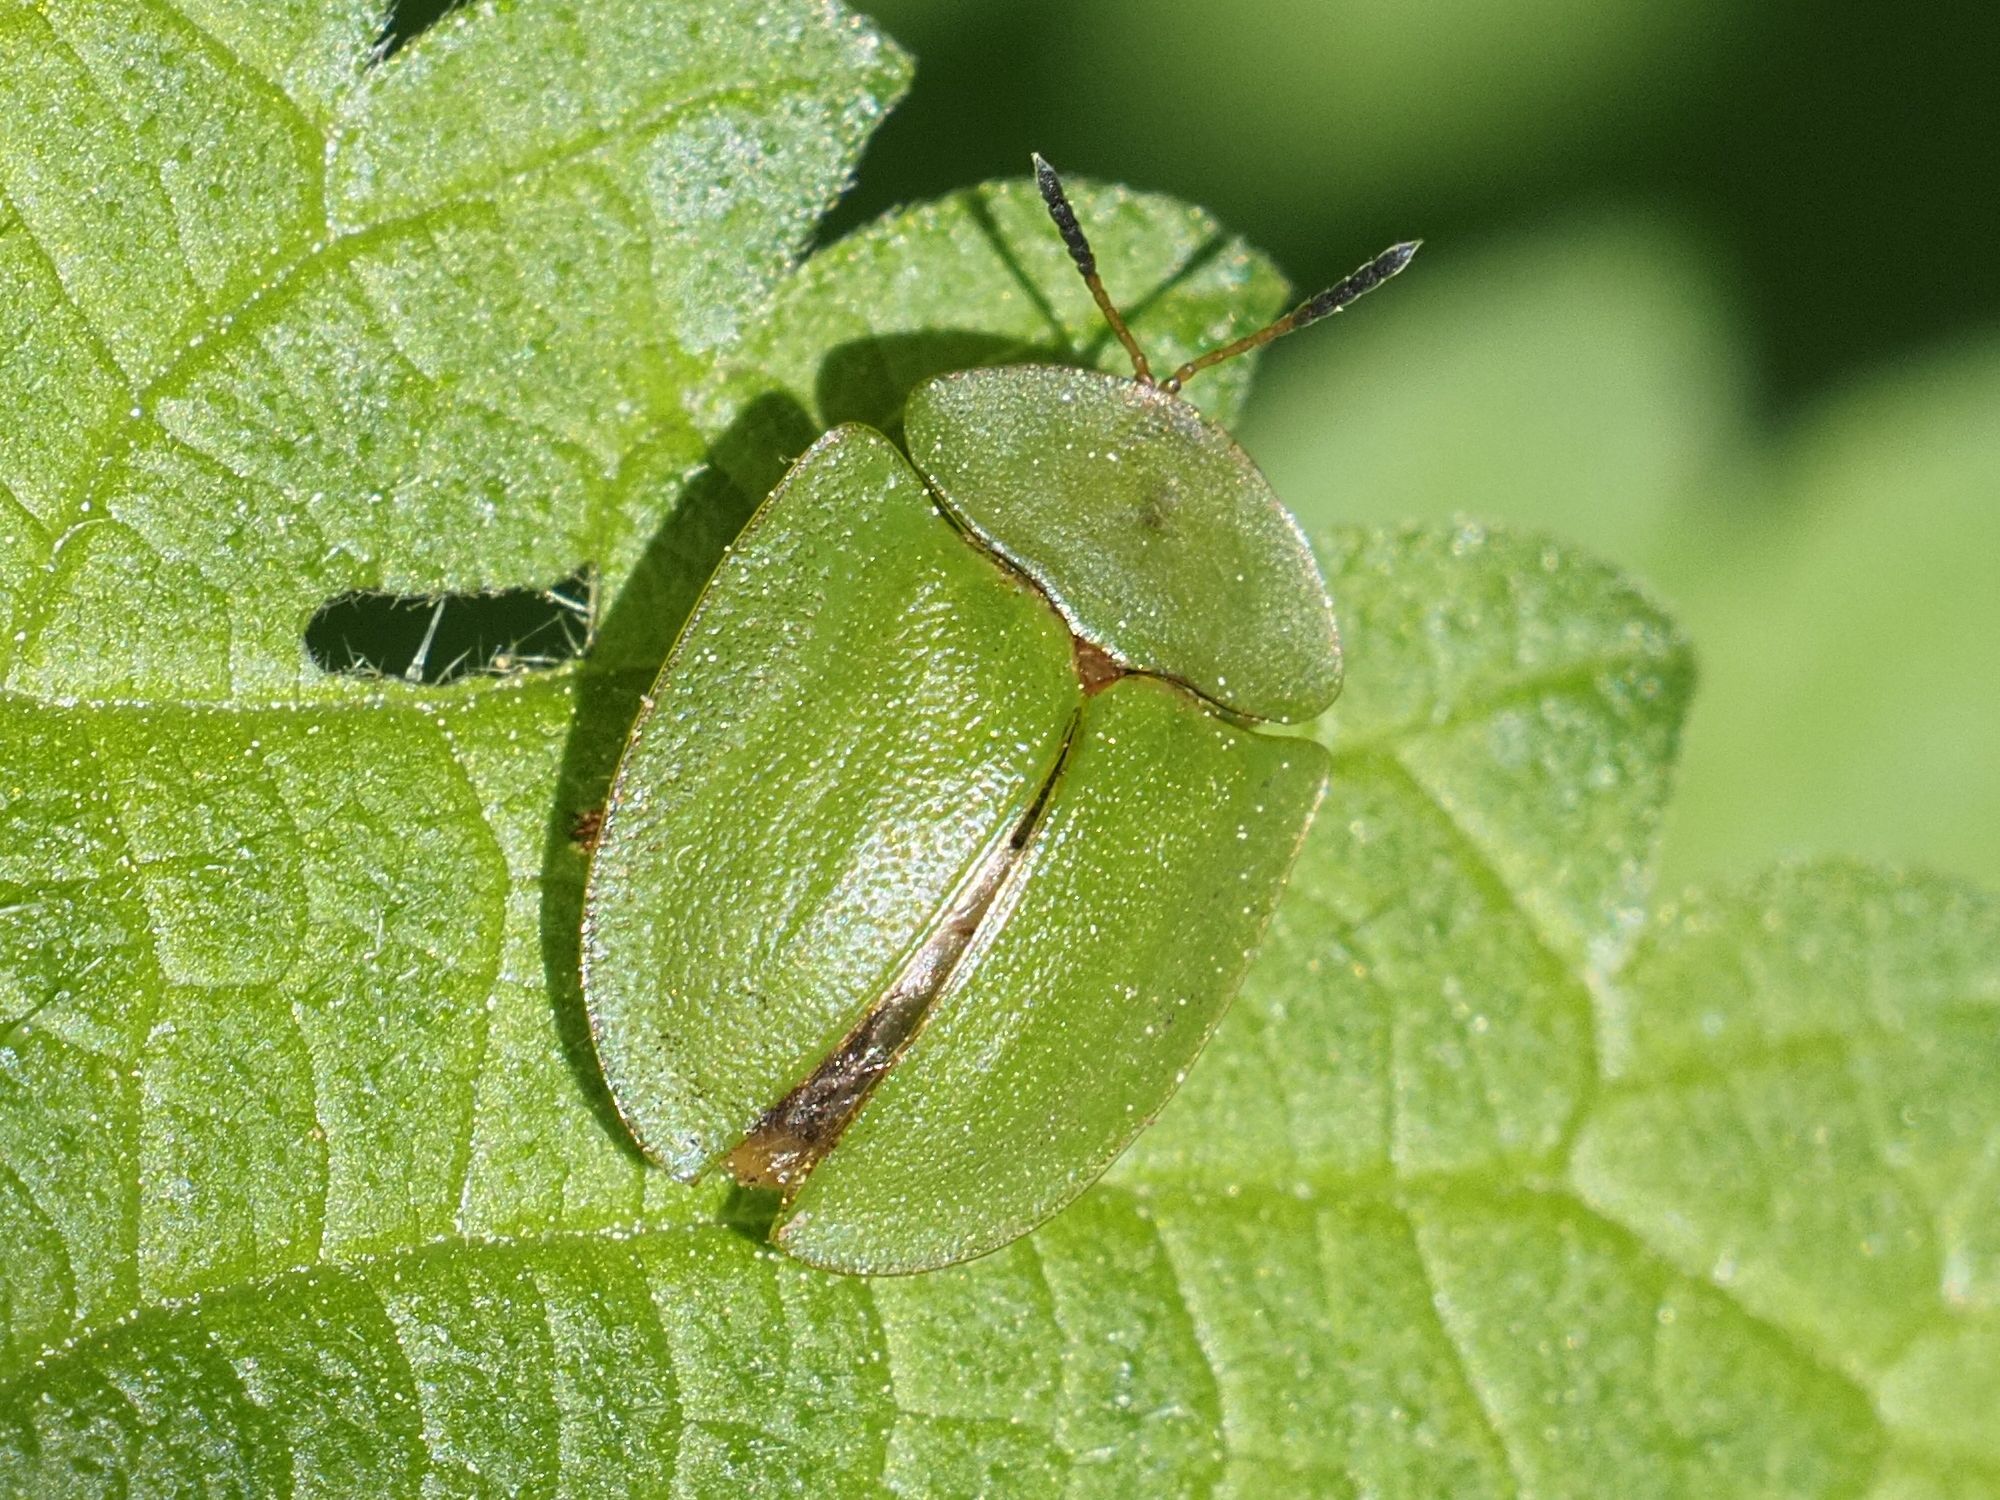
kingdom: Animalia
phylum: Arthropoda
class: Insecta
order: Coleoptera
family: Chrysomelidae
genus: Cassida
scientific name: Cassida viridis
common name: Green tortoise beetle
